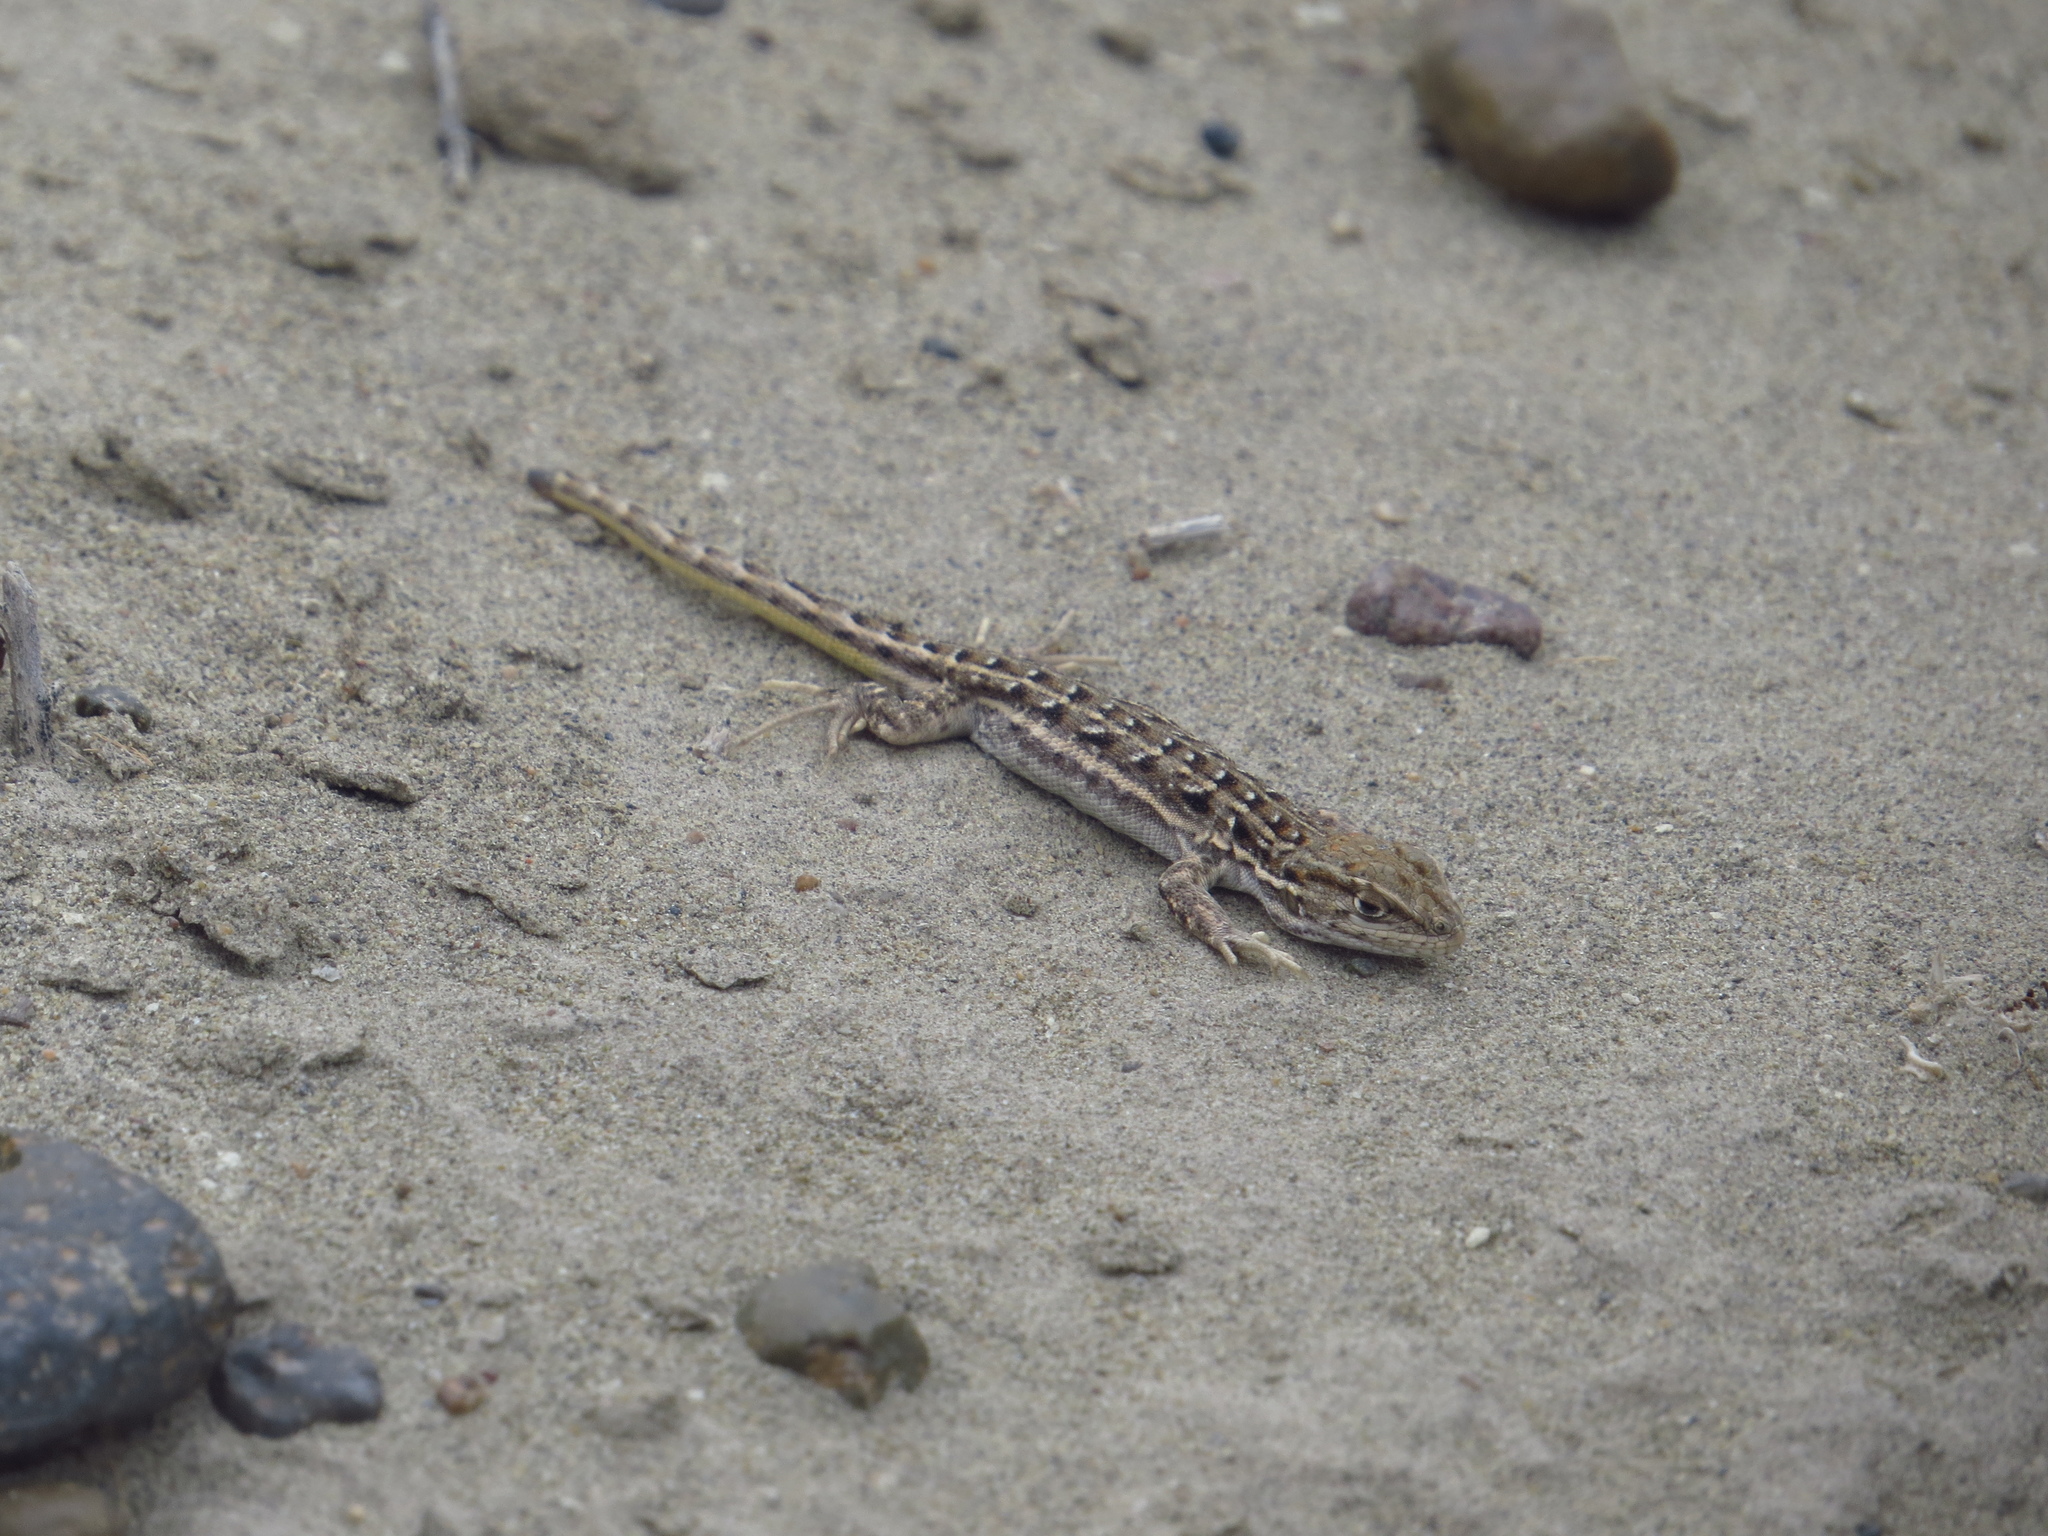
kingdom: Animalia
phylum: Chordata
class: Squamata
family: Liolaemidae
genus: Liolaemus
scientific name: Liolaemus darwinii
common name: Darwin's tree iguana
